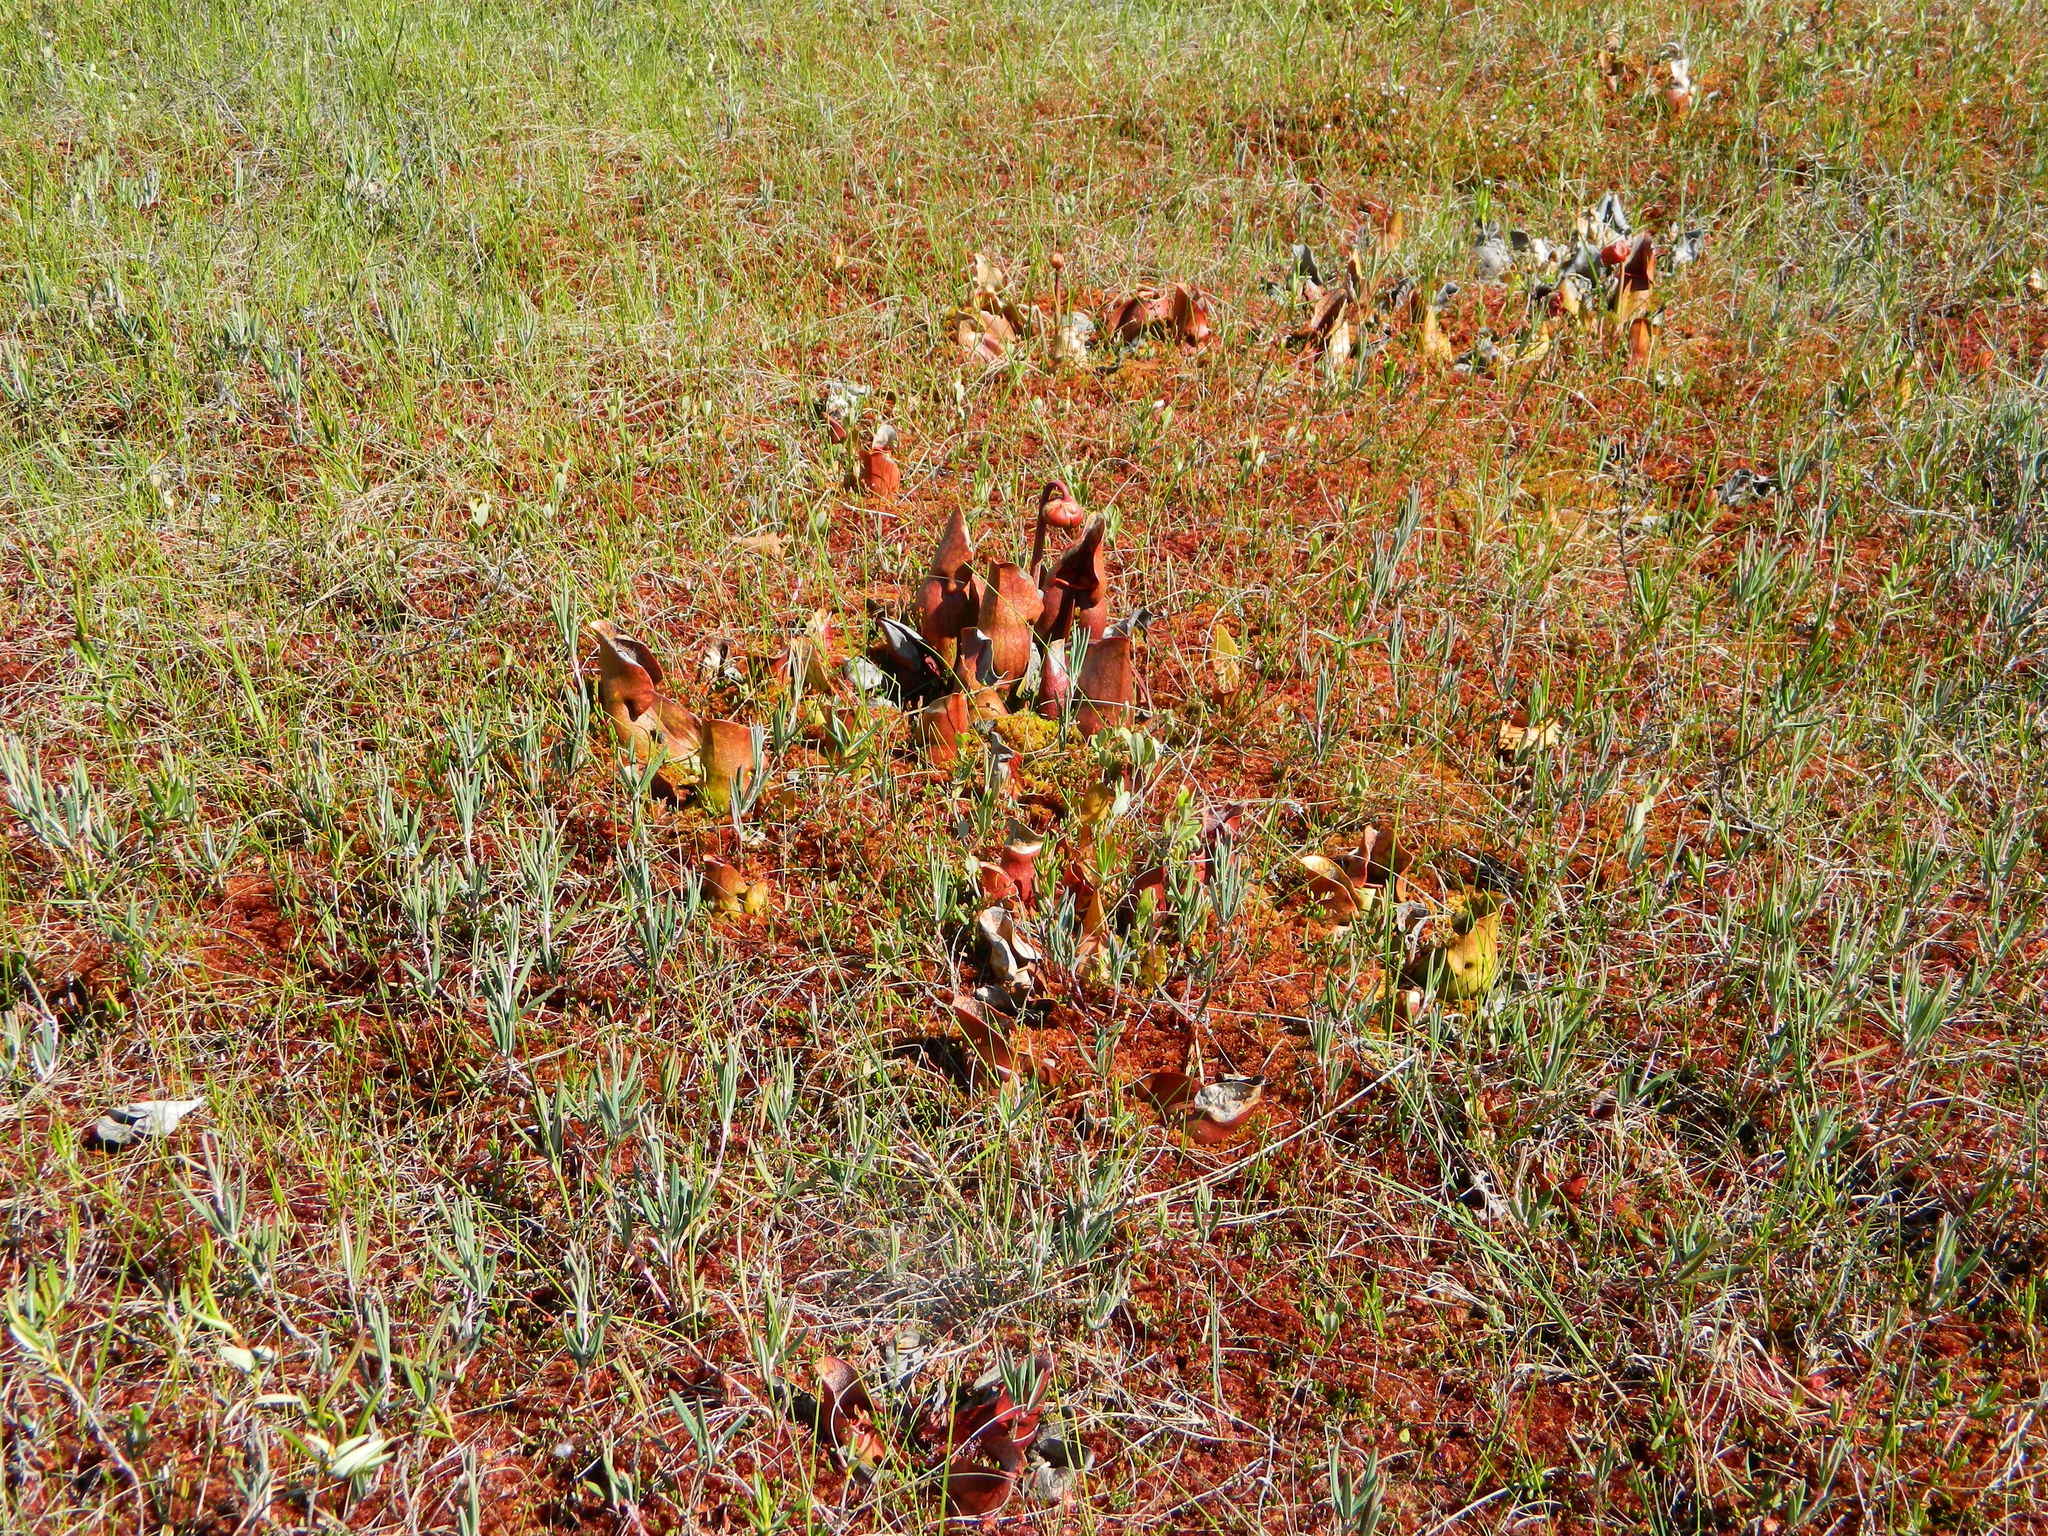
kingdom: Plantae
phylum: Tracheophyta
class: Magnoliopsida
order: Ericales
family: Sarraceniaceae
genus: Sarracenia
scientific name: Sarracenia purpurea
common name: Pitcherplant
